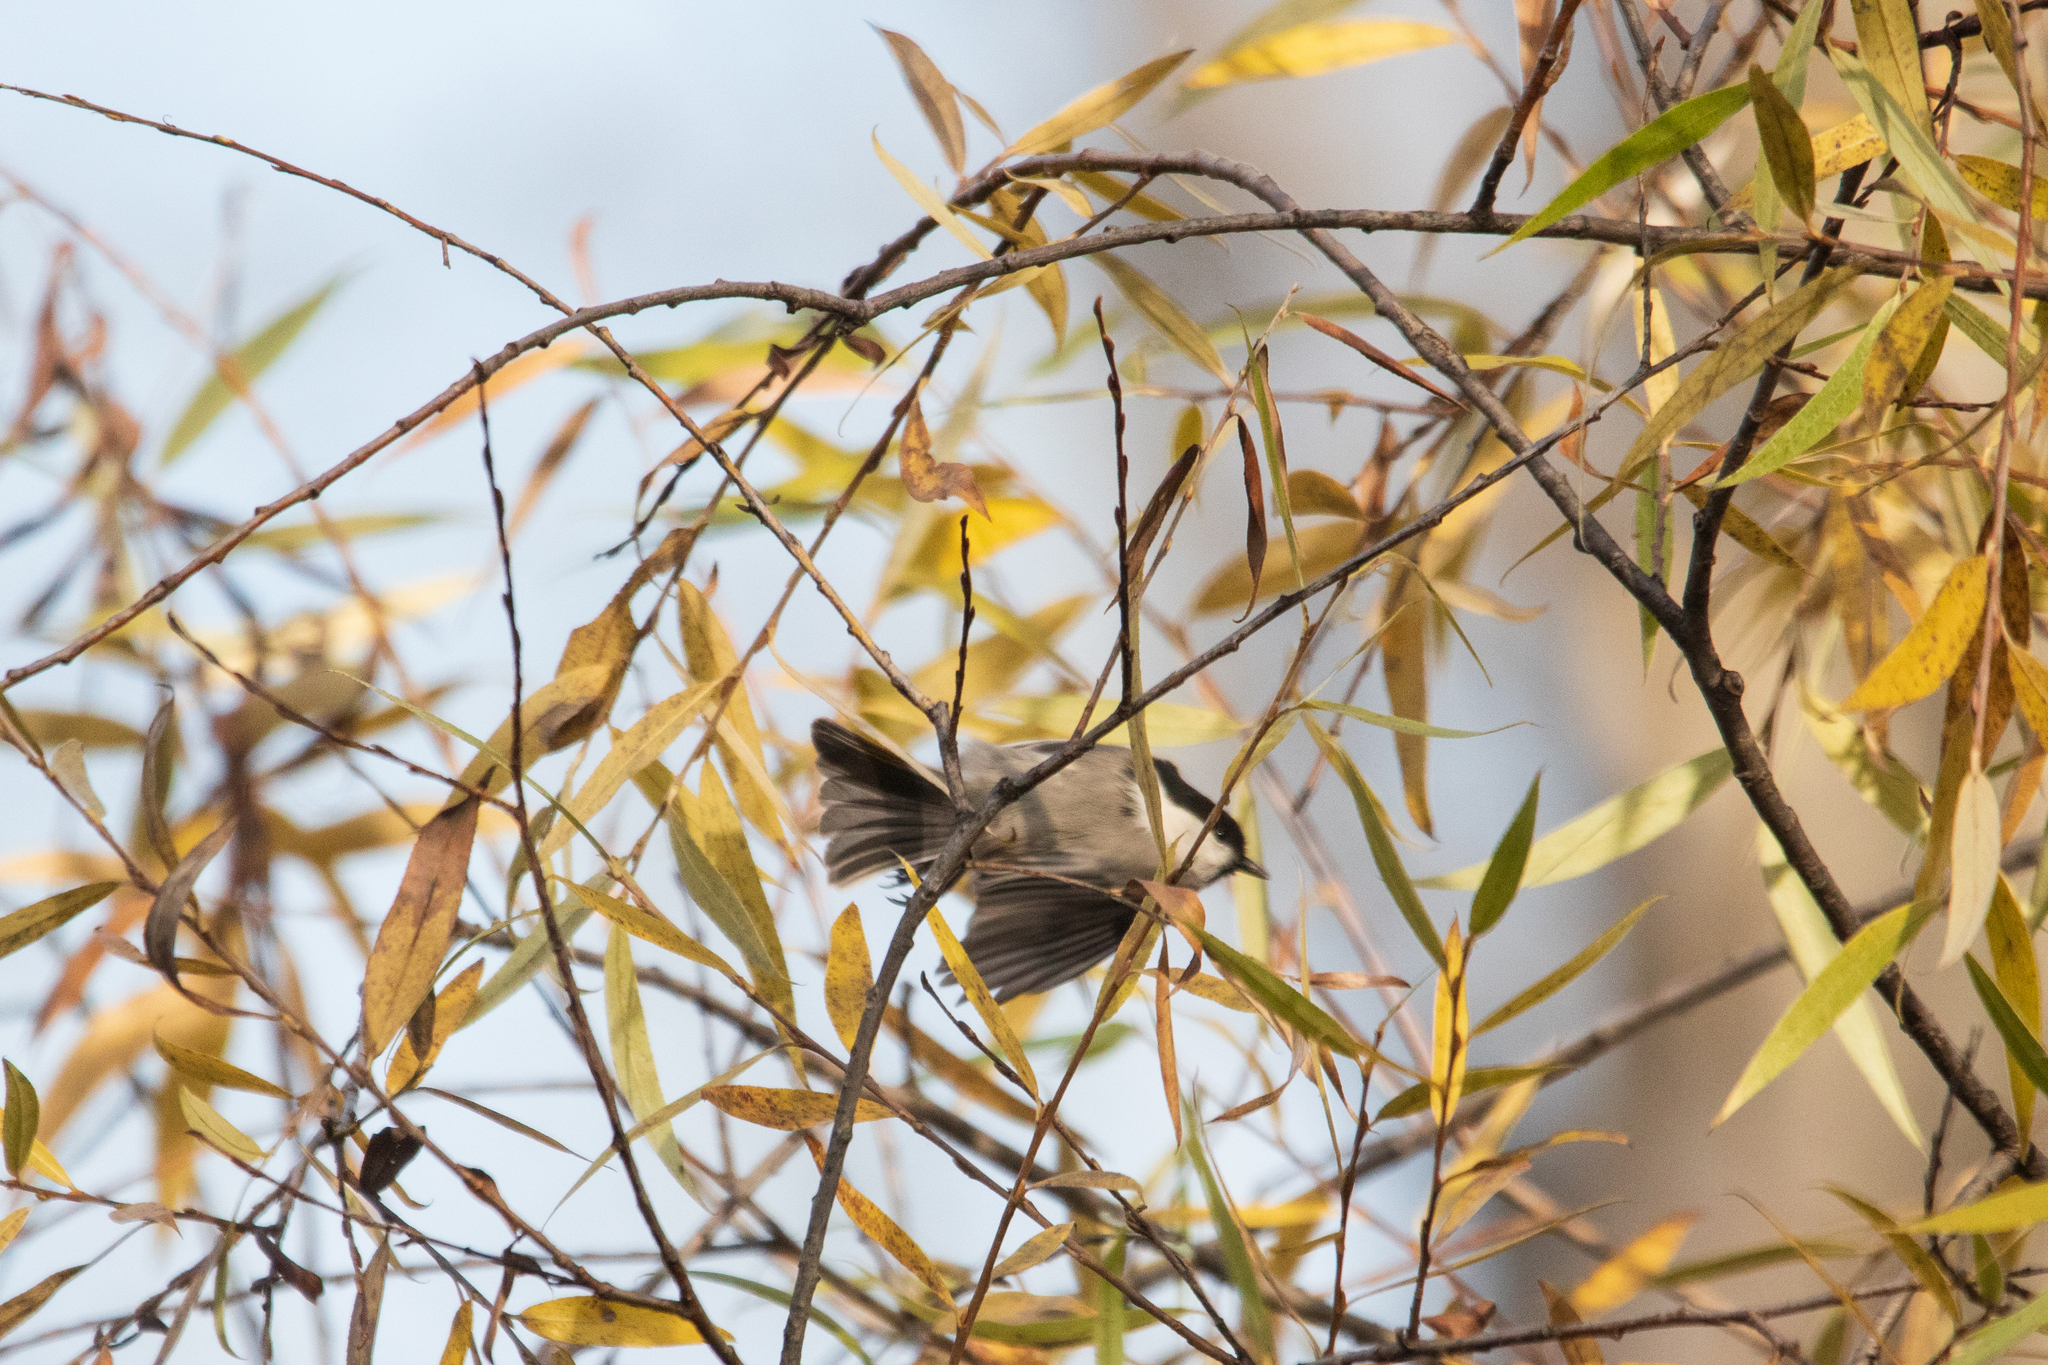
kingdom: Animalia
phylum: Chordata
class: Aves
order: Passeriformes
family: Paridae
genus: Poecile
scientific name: Poecile montanus
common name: Willow tit
